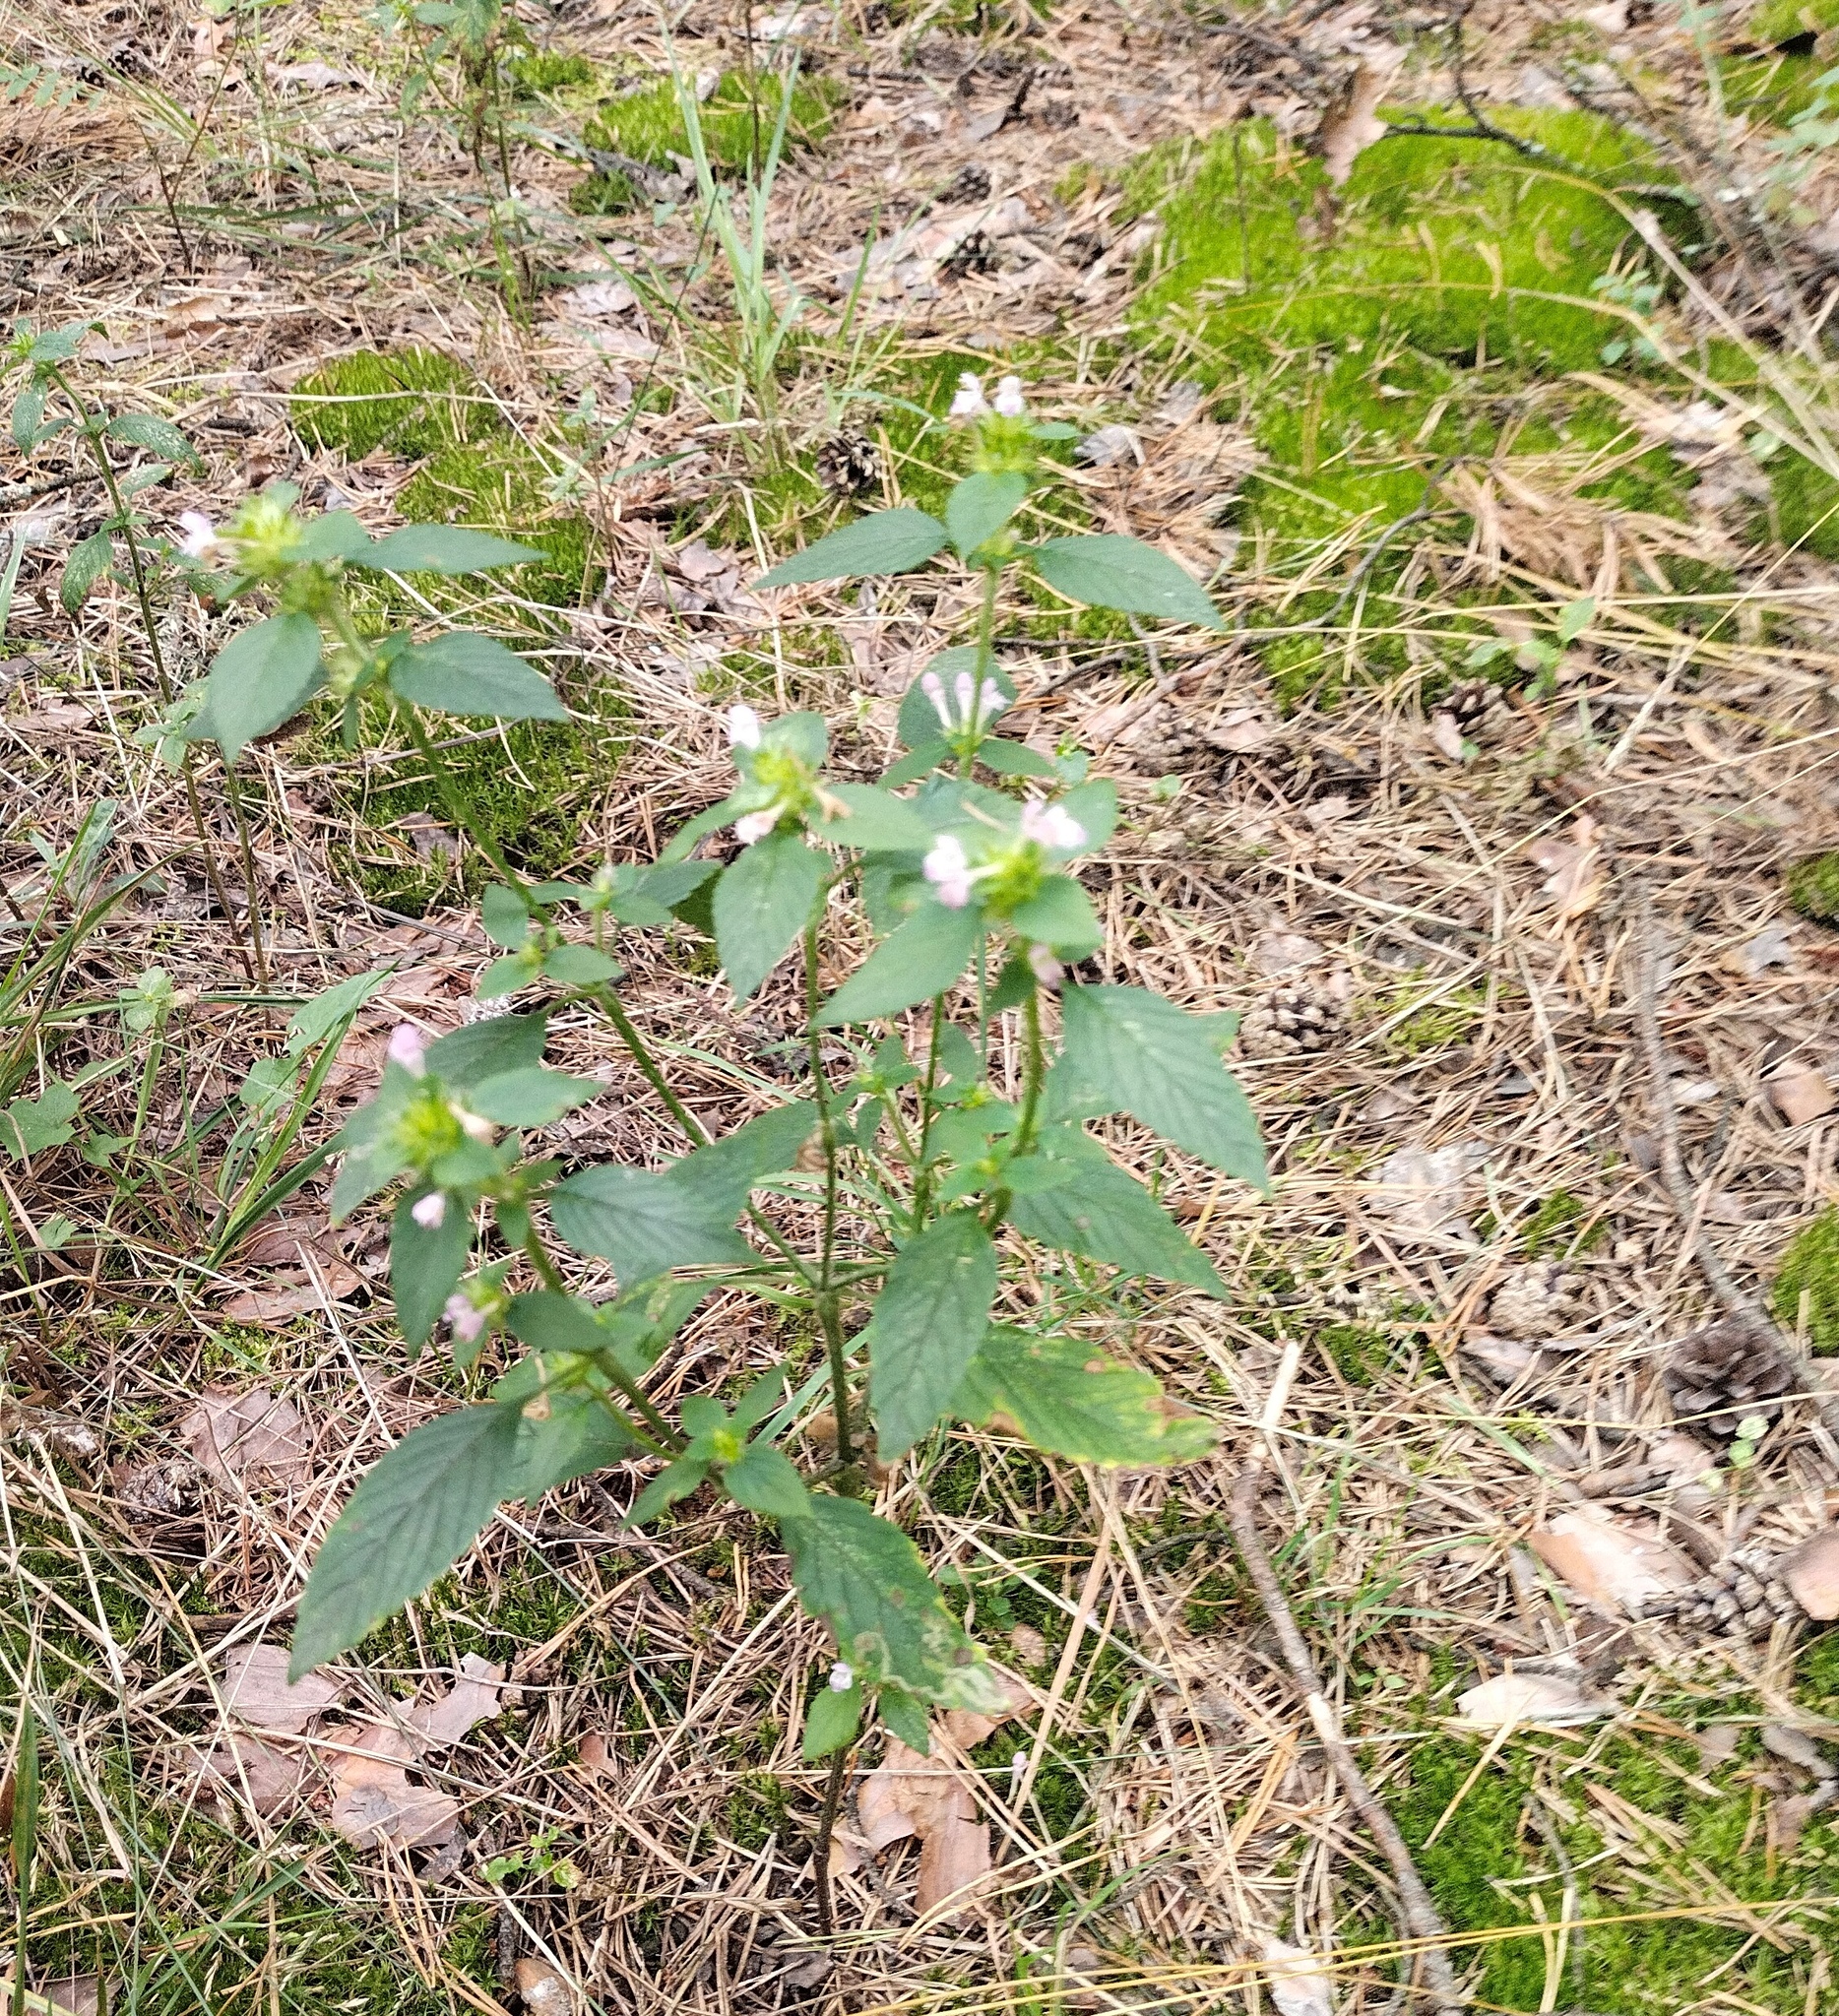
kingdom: Plantae
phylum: Tracheophyta
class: Magnoliopsida
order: Lamiales
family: Lamiaceae
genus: Galeopsis
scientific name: Galeopsis bifida
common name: Bifid hemp-nettle
